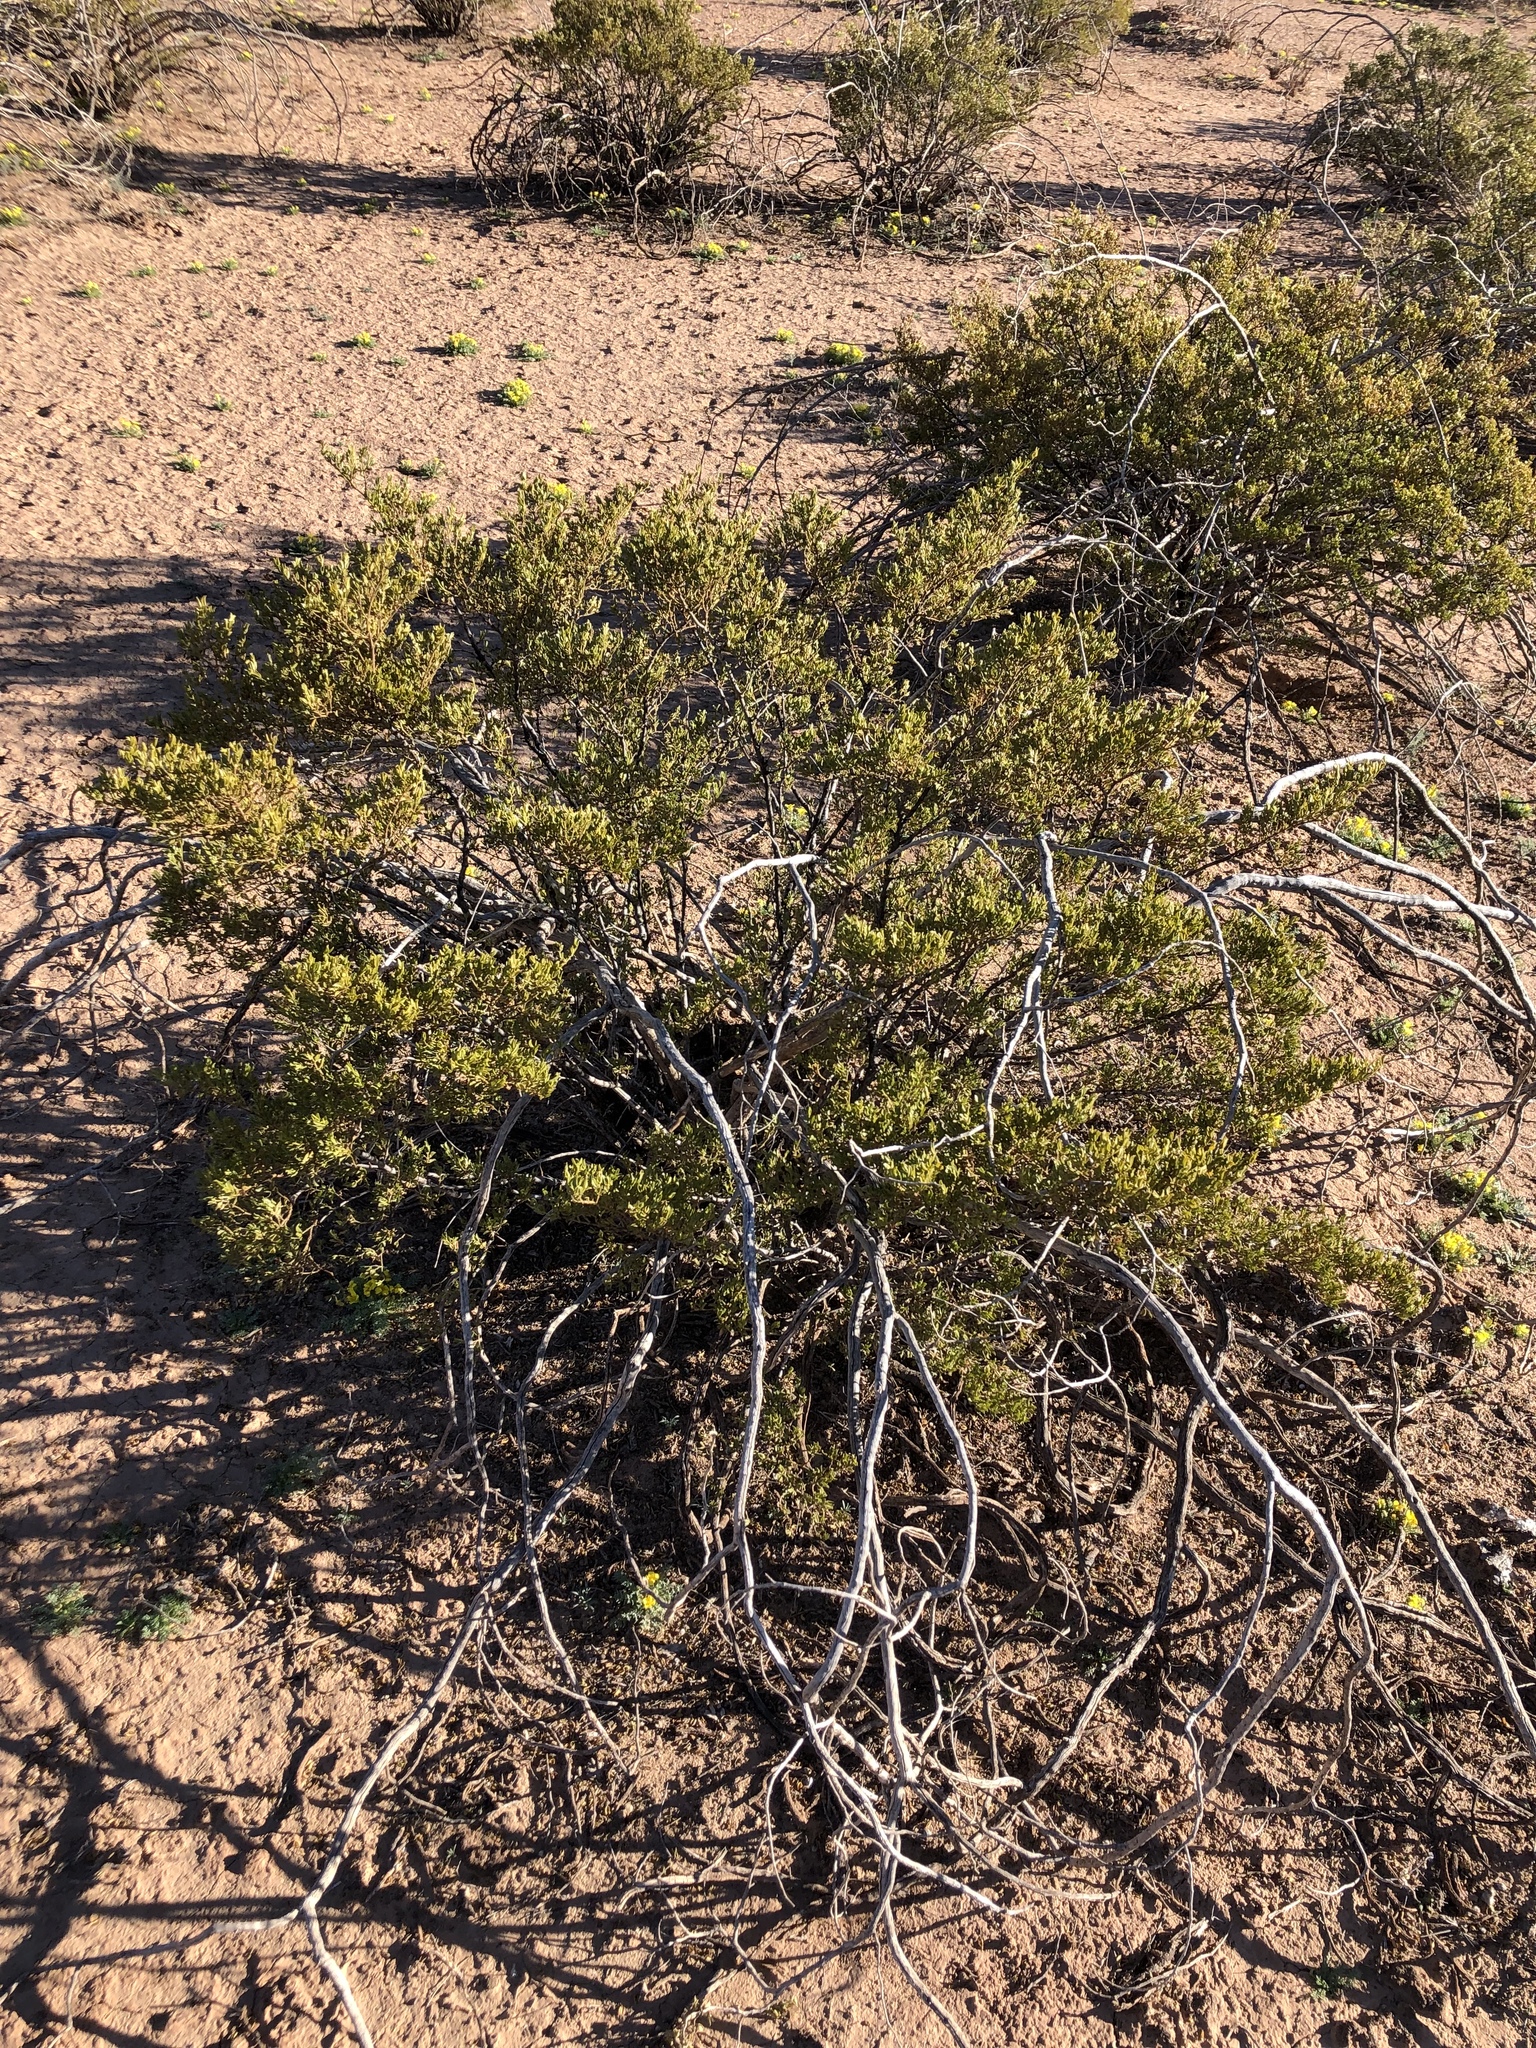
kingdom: Plantae
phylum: Tracheophyta
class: Magnoliopsida
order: Zygophyllales
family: Zygophyllaceae
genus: Larrea
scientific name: Larrea tridentata
